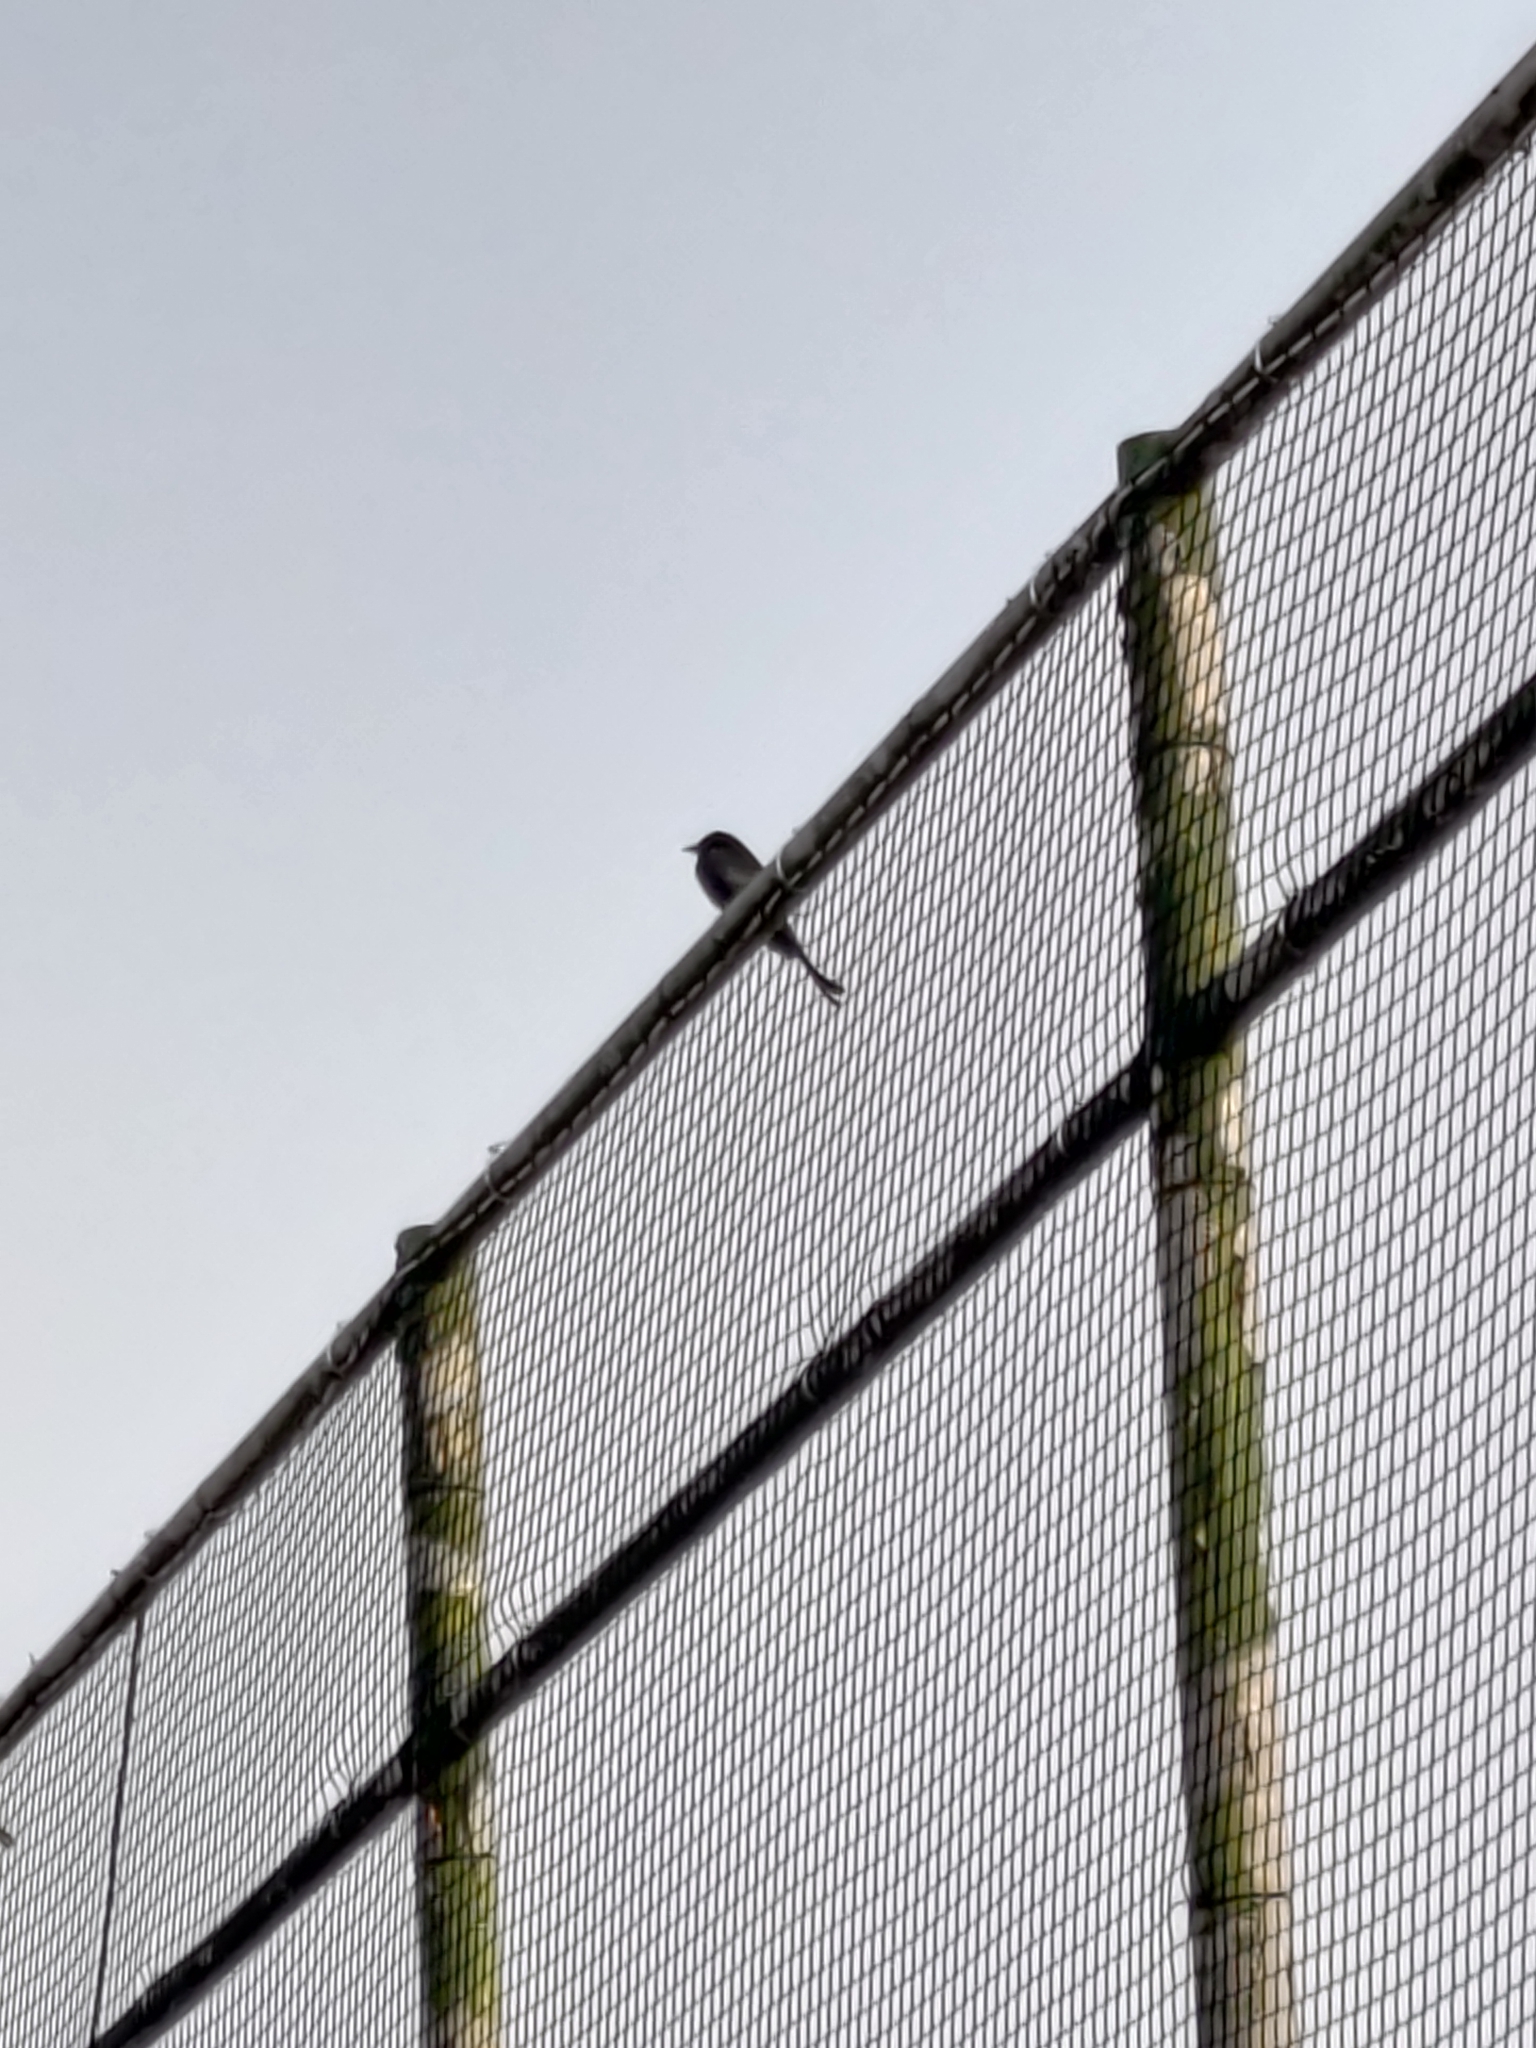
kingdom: Animalia
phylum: Chordata
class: Aves
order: Passeriformes
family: Dicruridae
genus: Dicrurus
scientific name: Dicrurus macrocercus
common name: Black drongo
